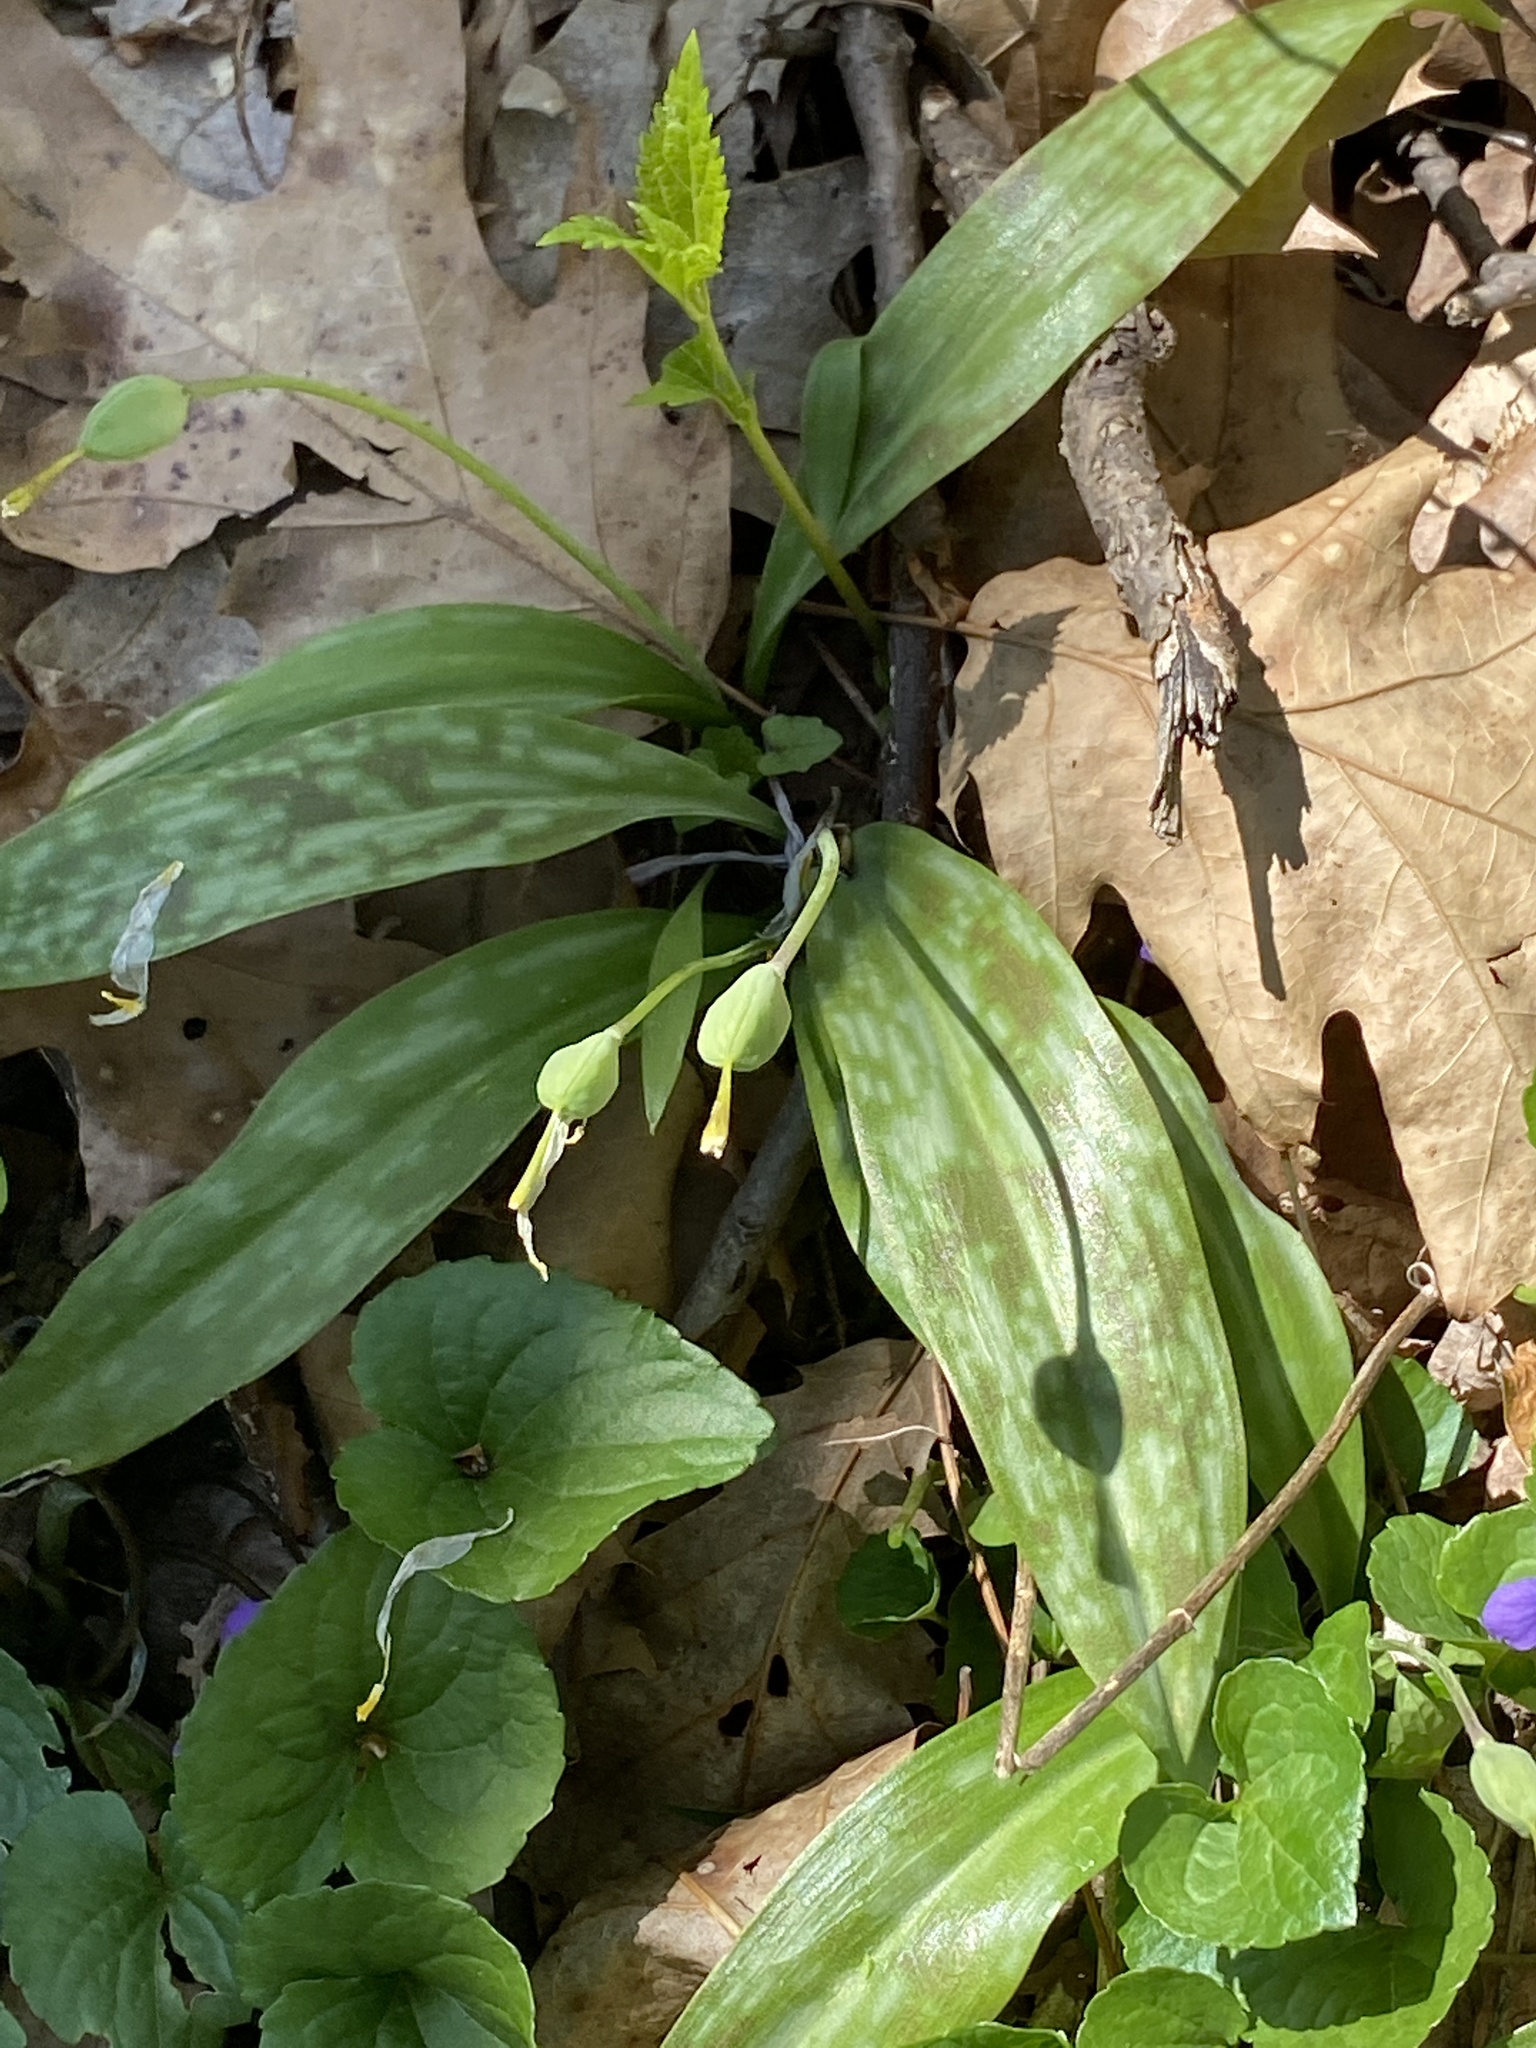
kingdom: Plantae
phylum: Tracheophyta
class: Liliopsida
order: Liliales
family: Liliaceae
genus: Erythronium
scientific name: Erythronium americanum
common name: Yellow adder's-tongue
